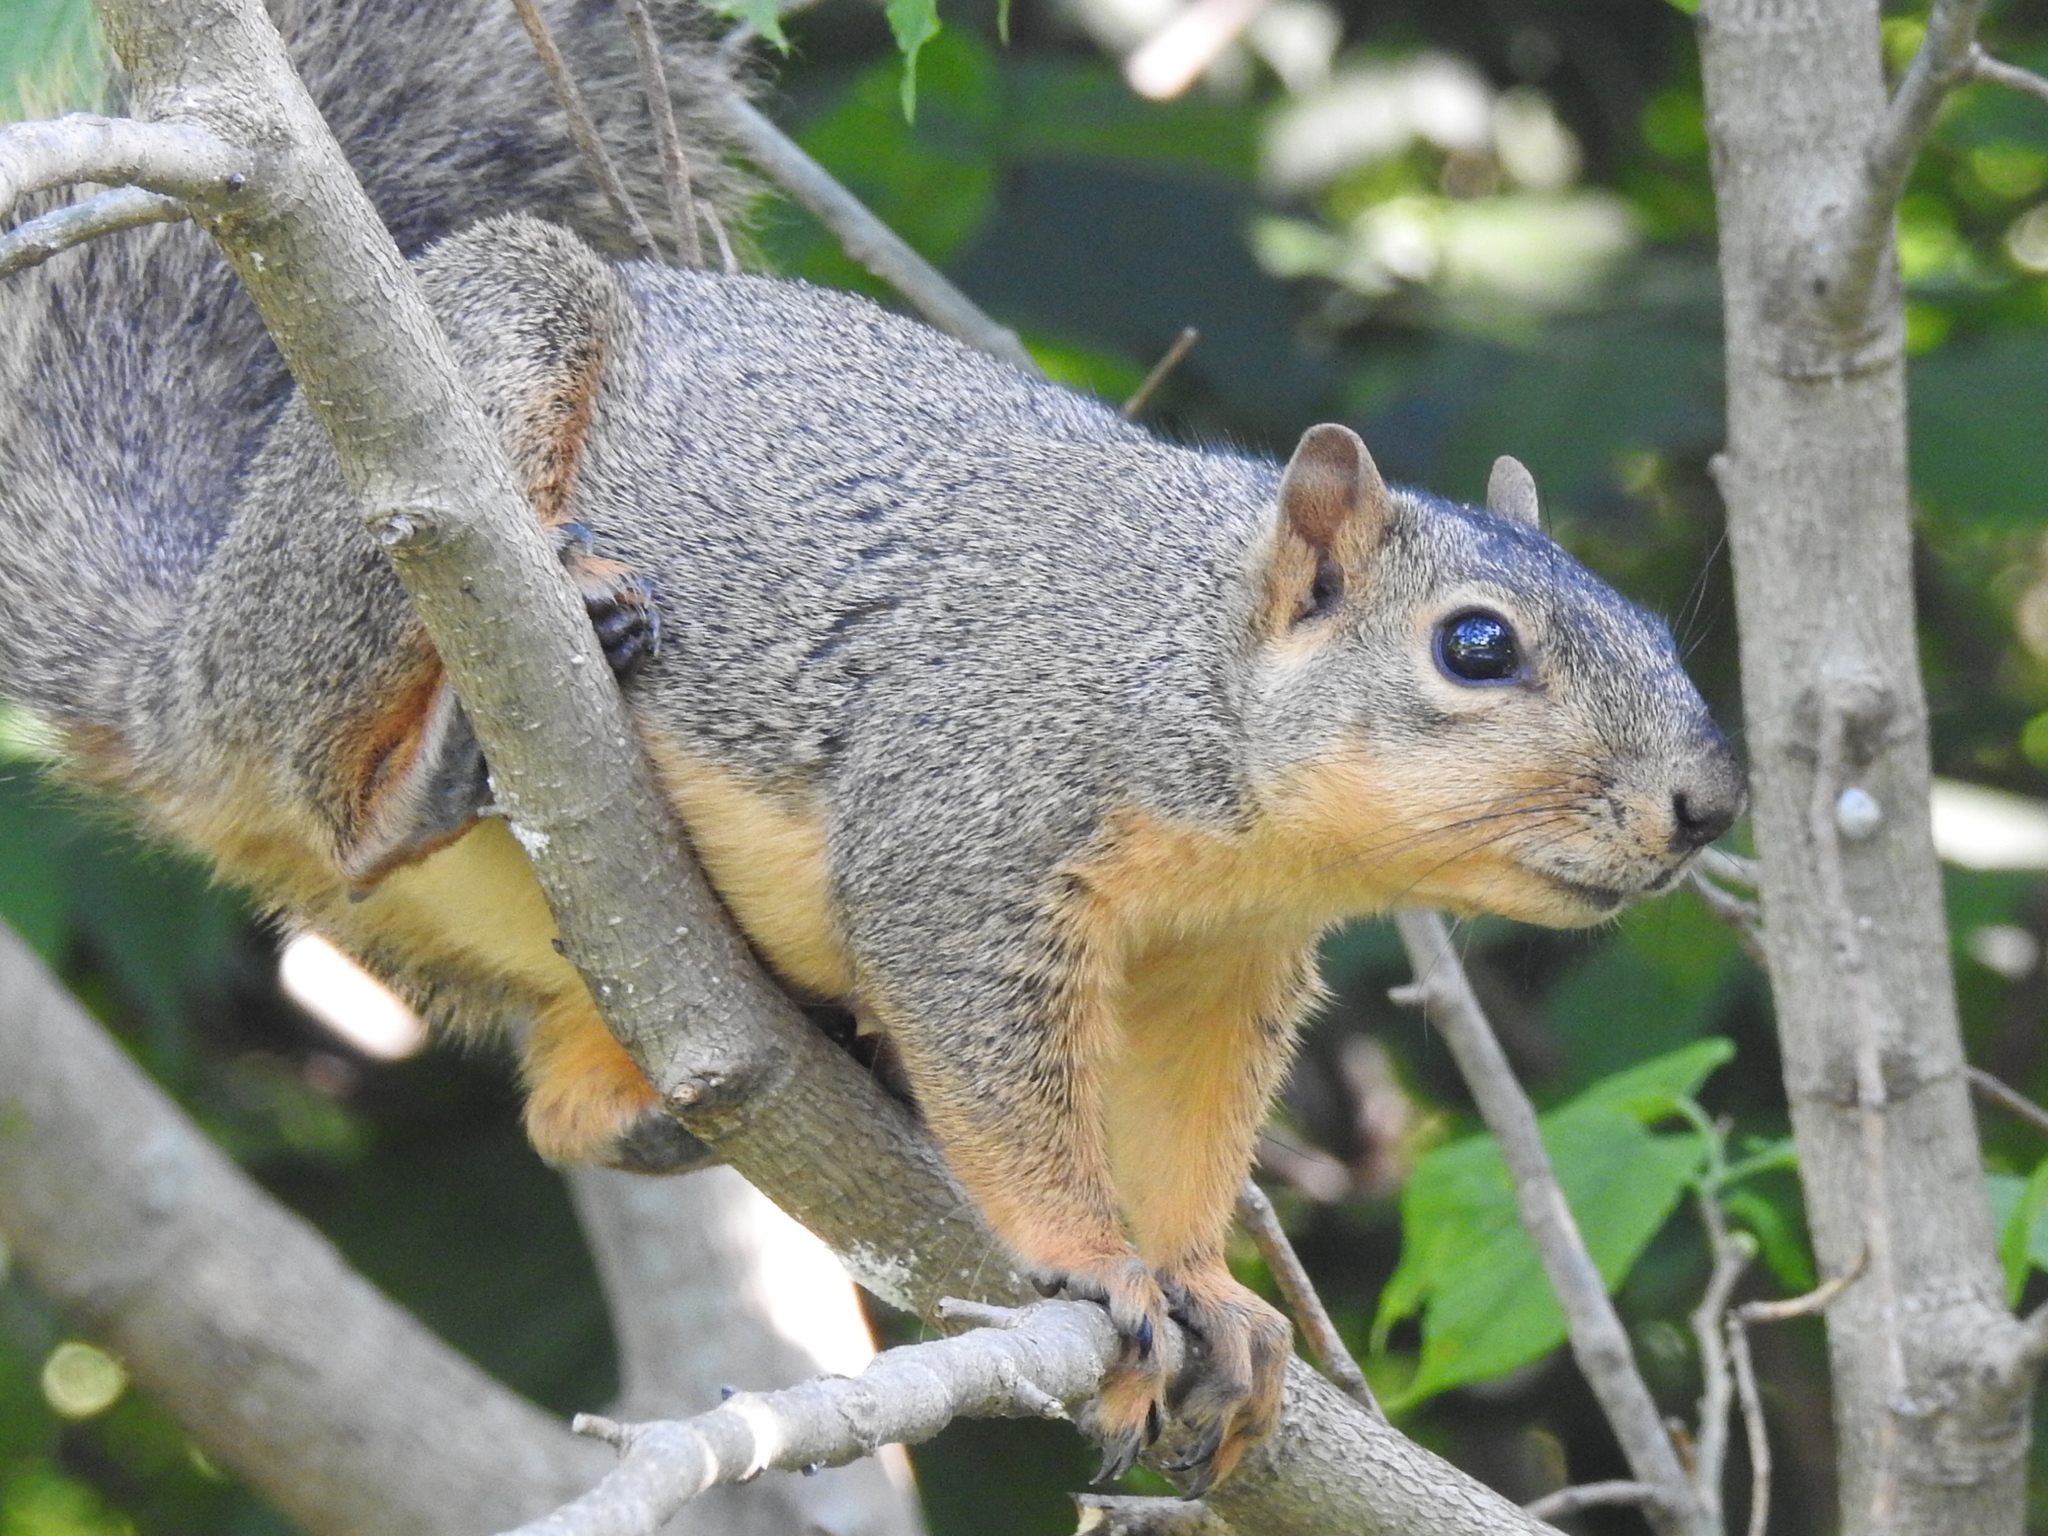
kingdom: Animalia
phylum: Chordata
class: Mammalia
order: Rodentia
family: Sciuridae
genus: Sciurus
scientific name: Sciurus niger
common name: Fox squirrel
